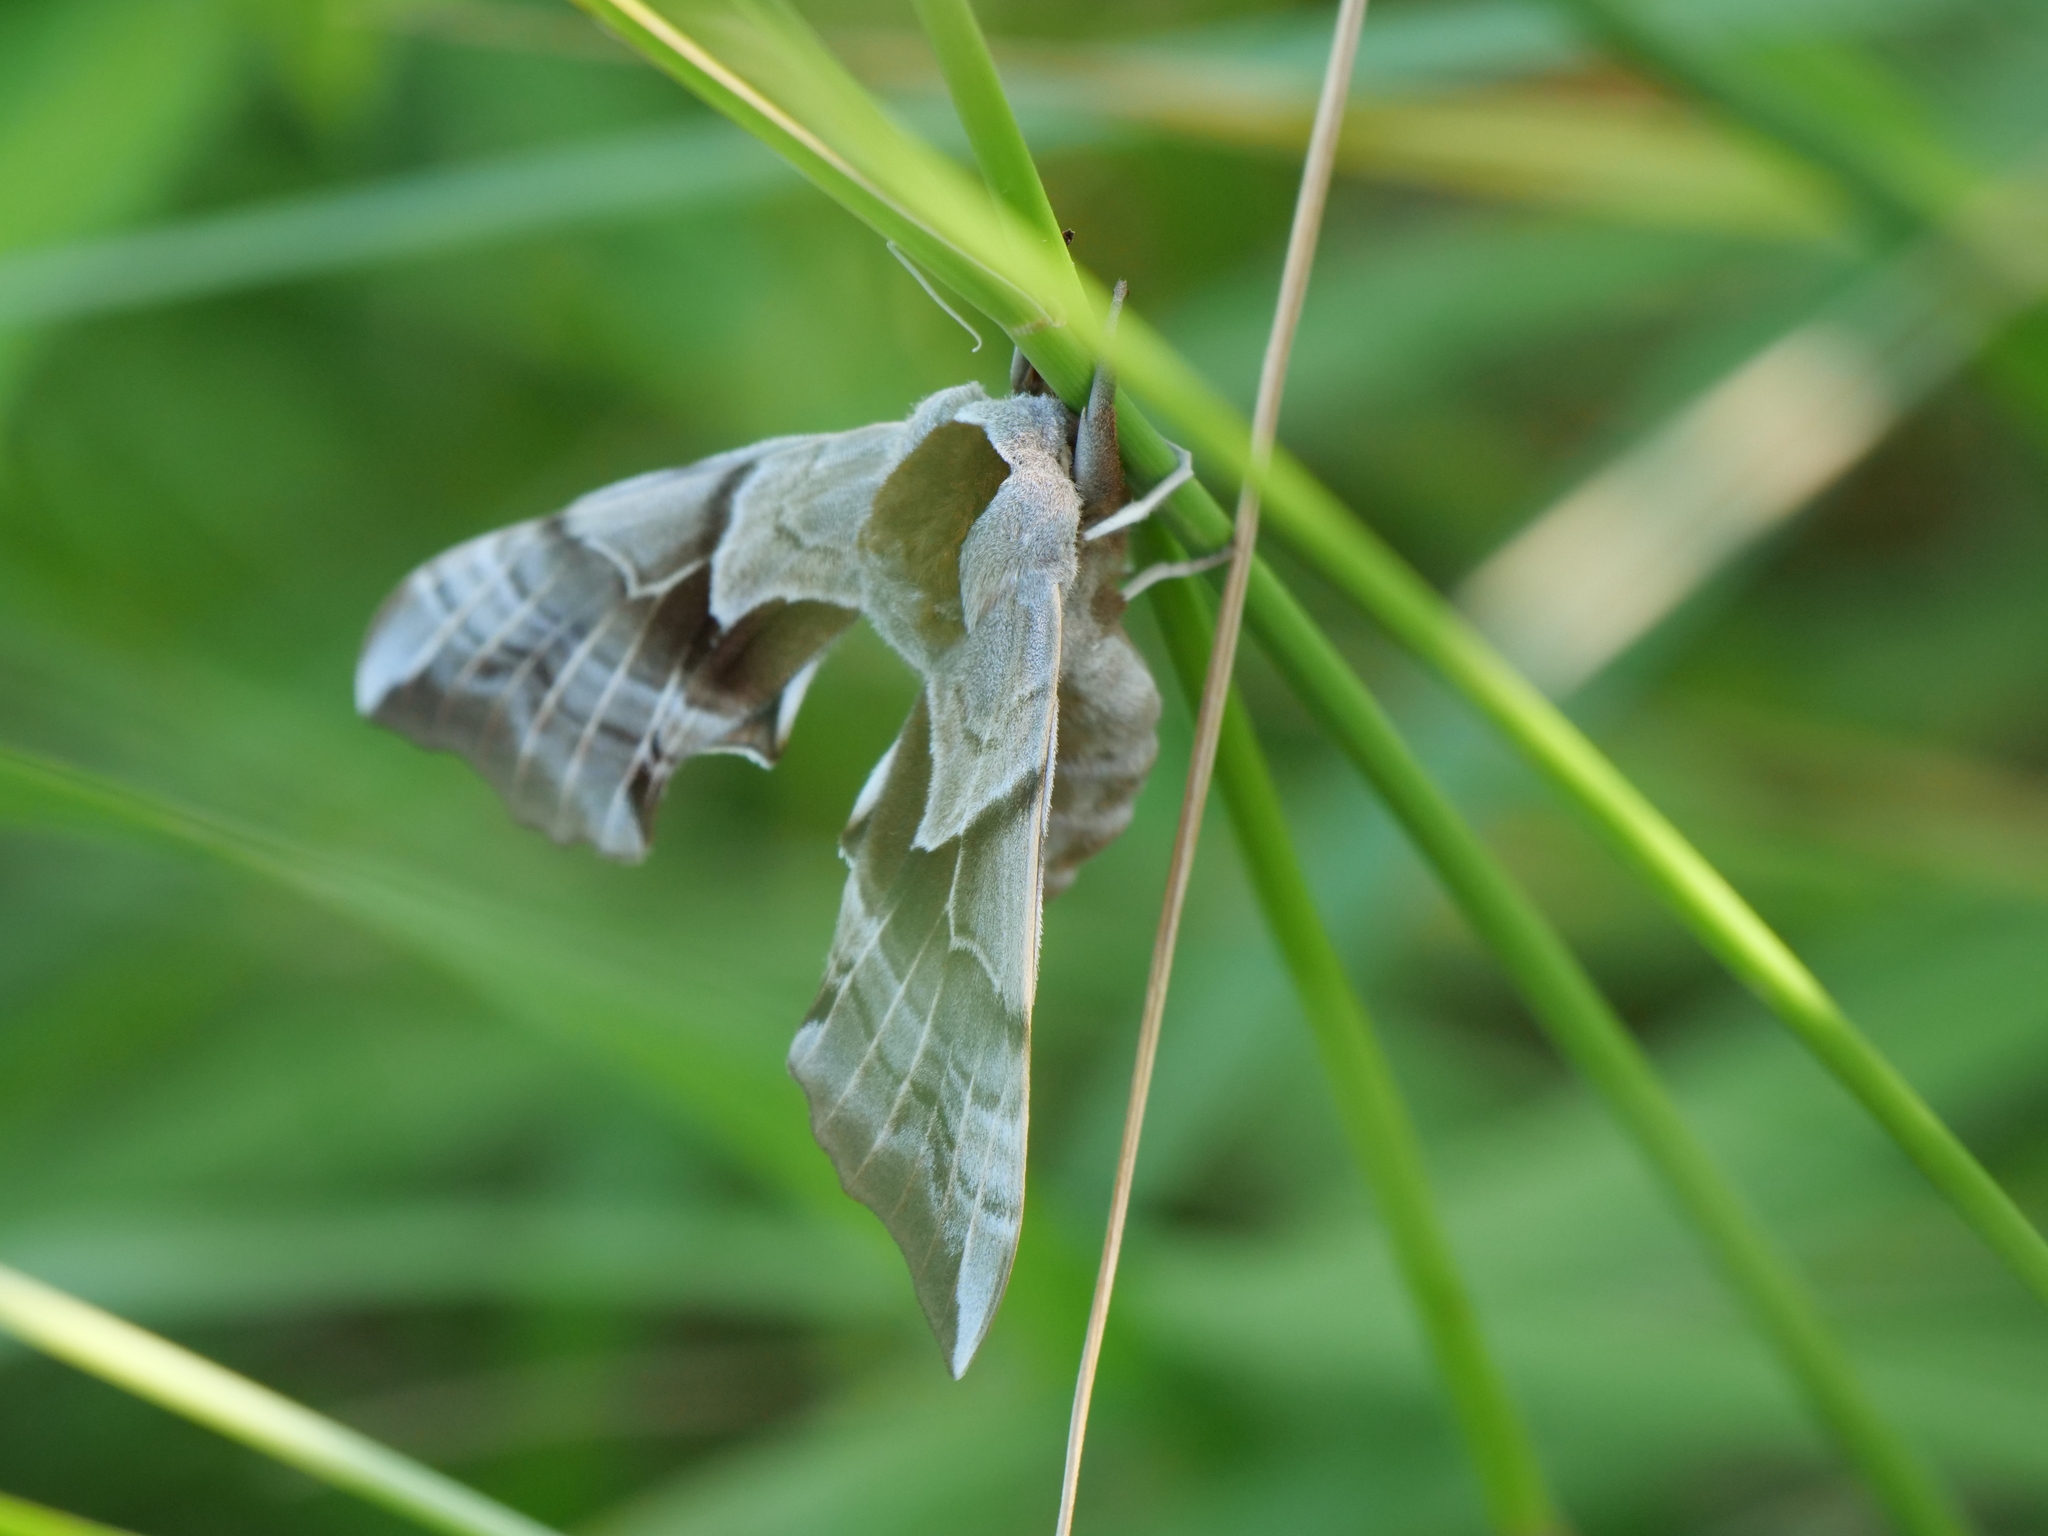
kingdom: Animalia
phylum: Arthropoda
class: Insecta
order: Lepidoptera
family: Sphingidae
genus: Smerinthus
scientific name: Smerinthus cerisyi
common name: Cerisy's sphinx moth
